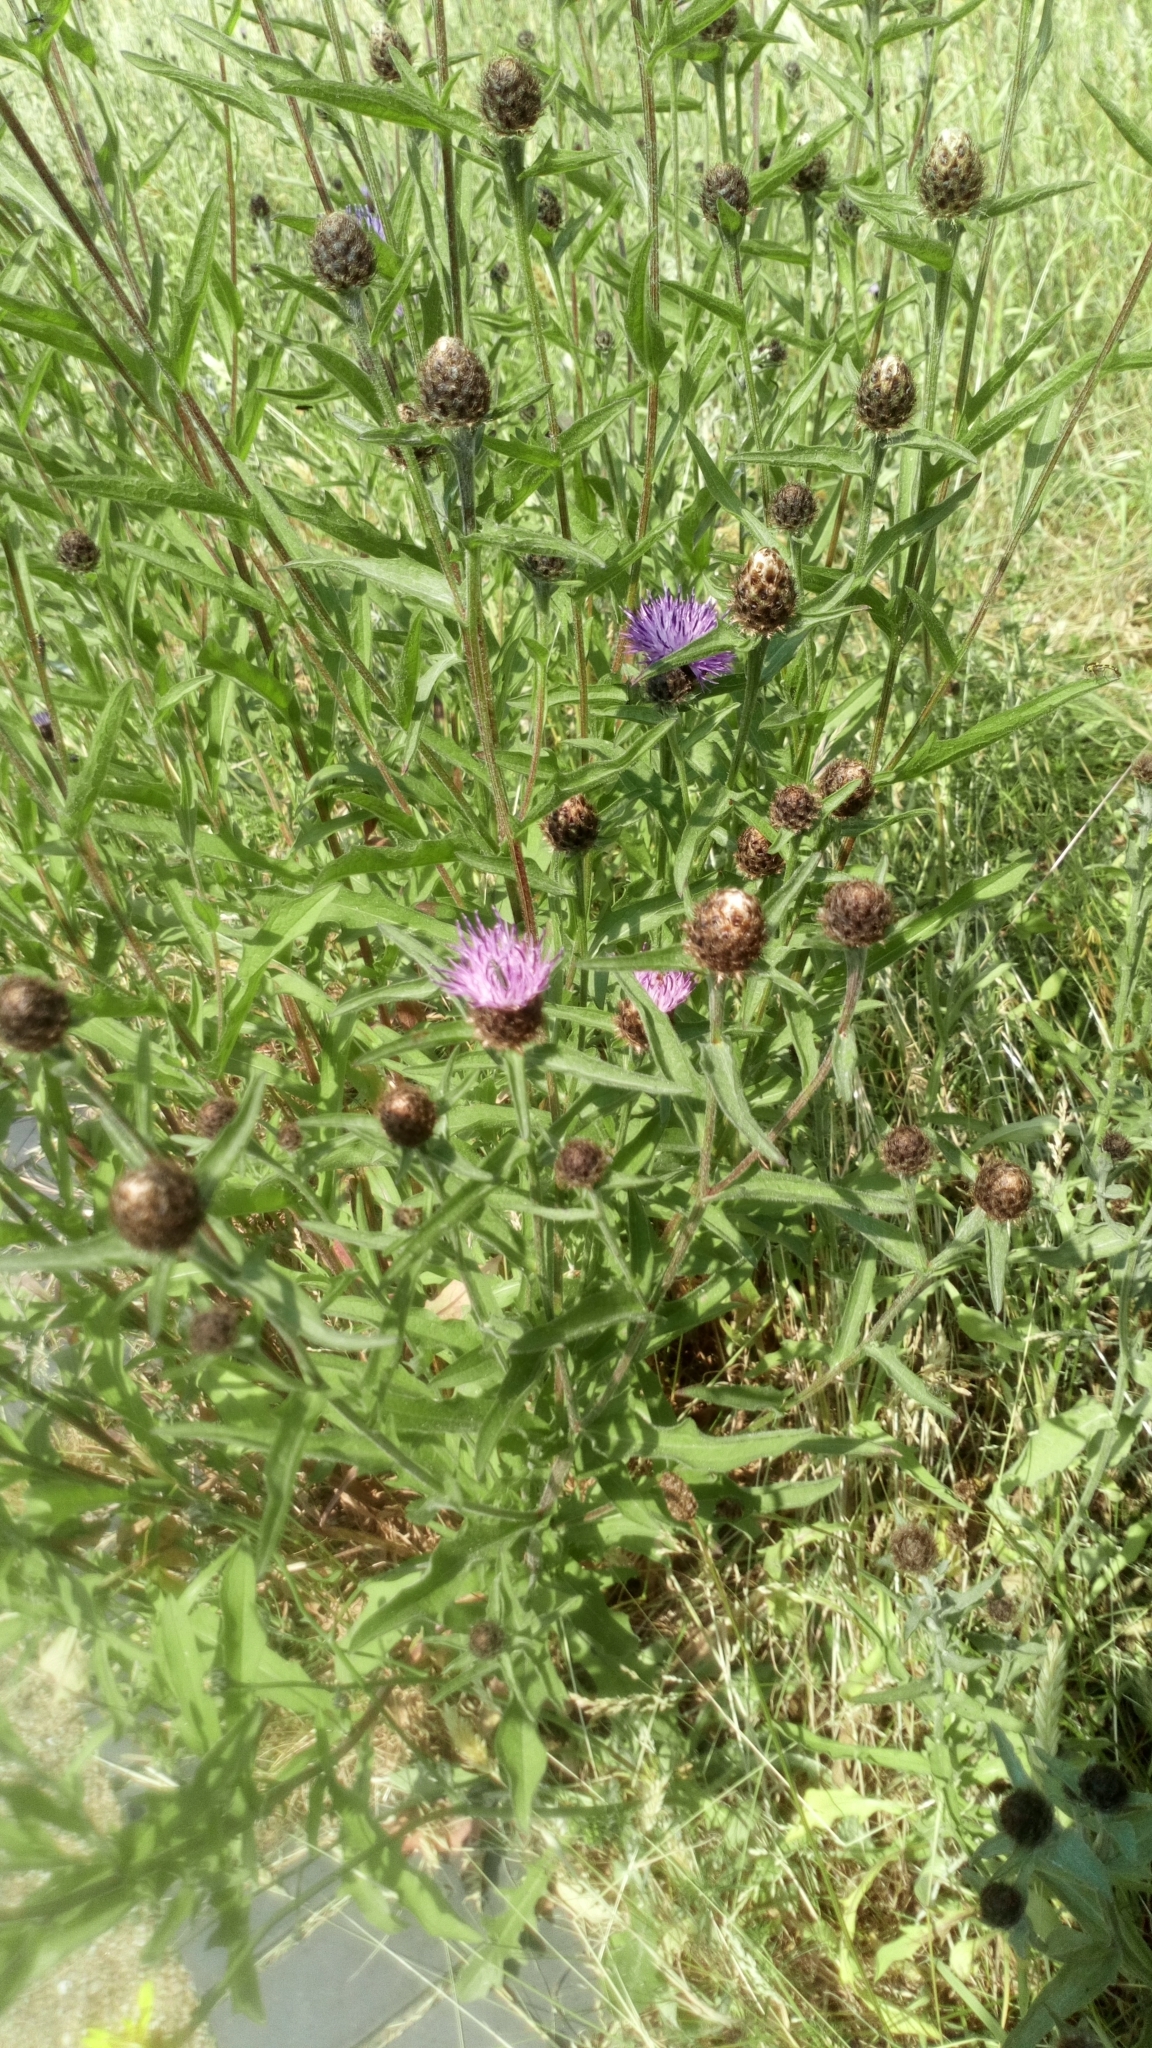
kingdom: Plantae
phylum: Tracheophyta
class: Magnoliopsida
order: Asterales
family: Asteraceae
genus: Centaurea
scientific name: Centaurea nigra
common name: Lesser knapweed
